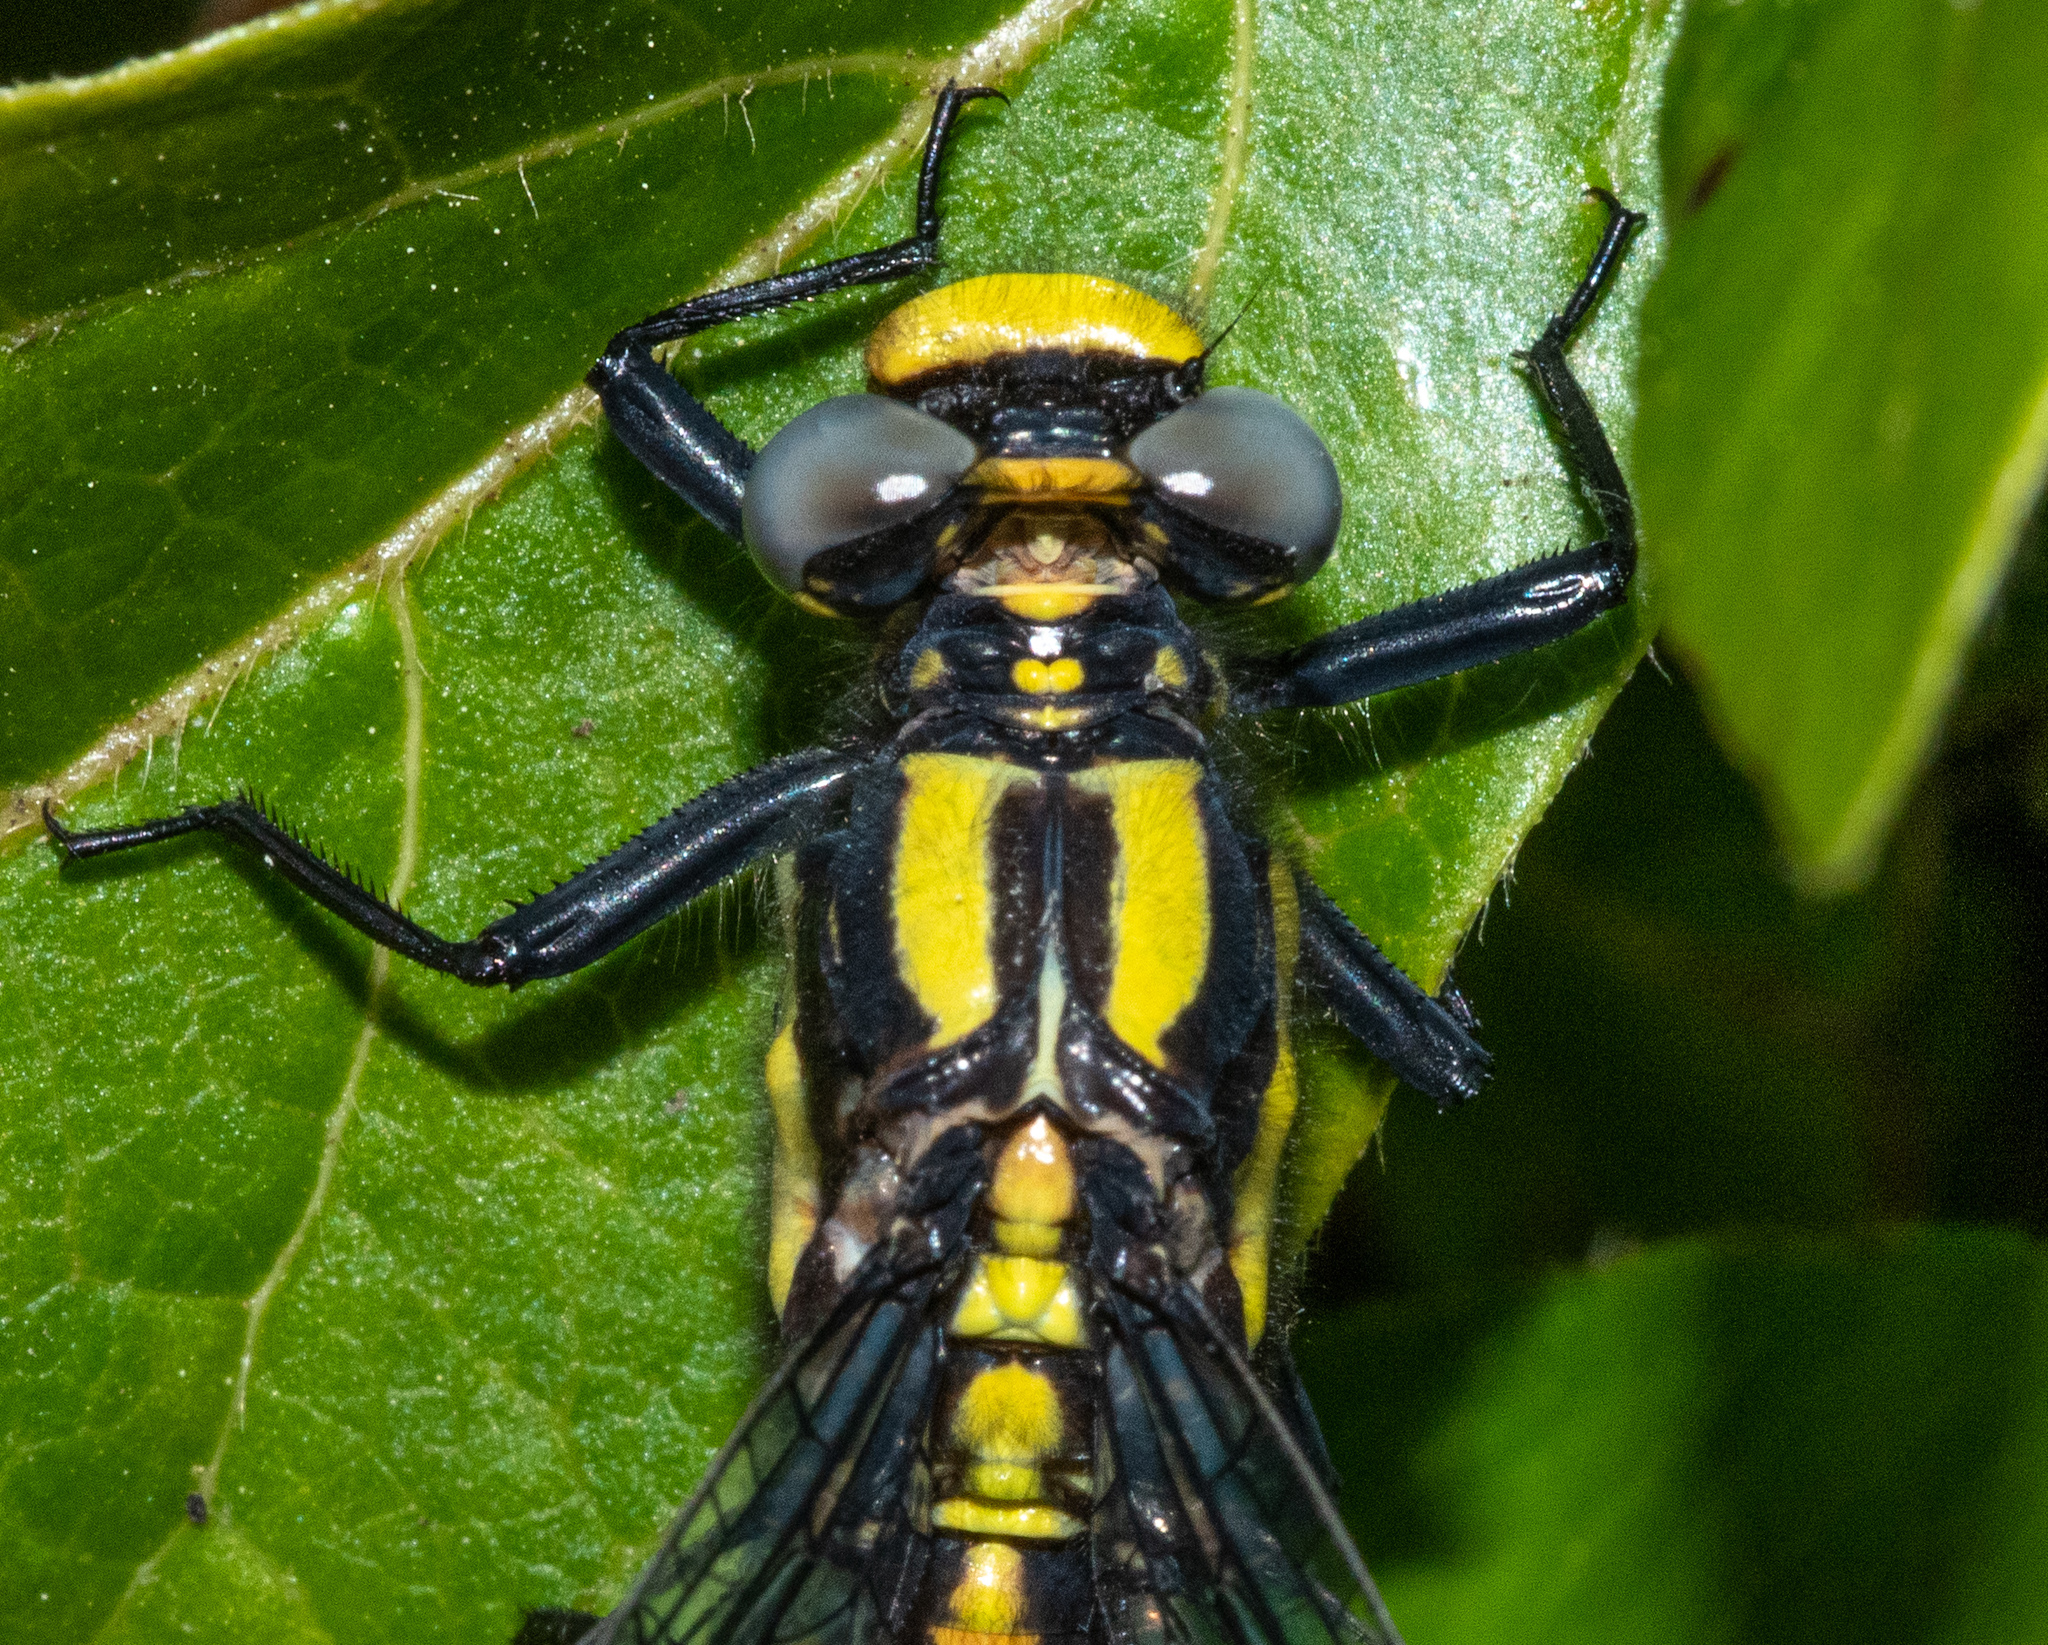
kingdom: Animalia
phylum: Arthropoda
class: Insecta
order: Odonata
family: Gomphidae
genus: Phanogomphus
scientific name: Phanogomphus kurilis
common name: Pacific clubtail
